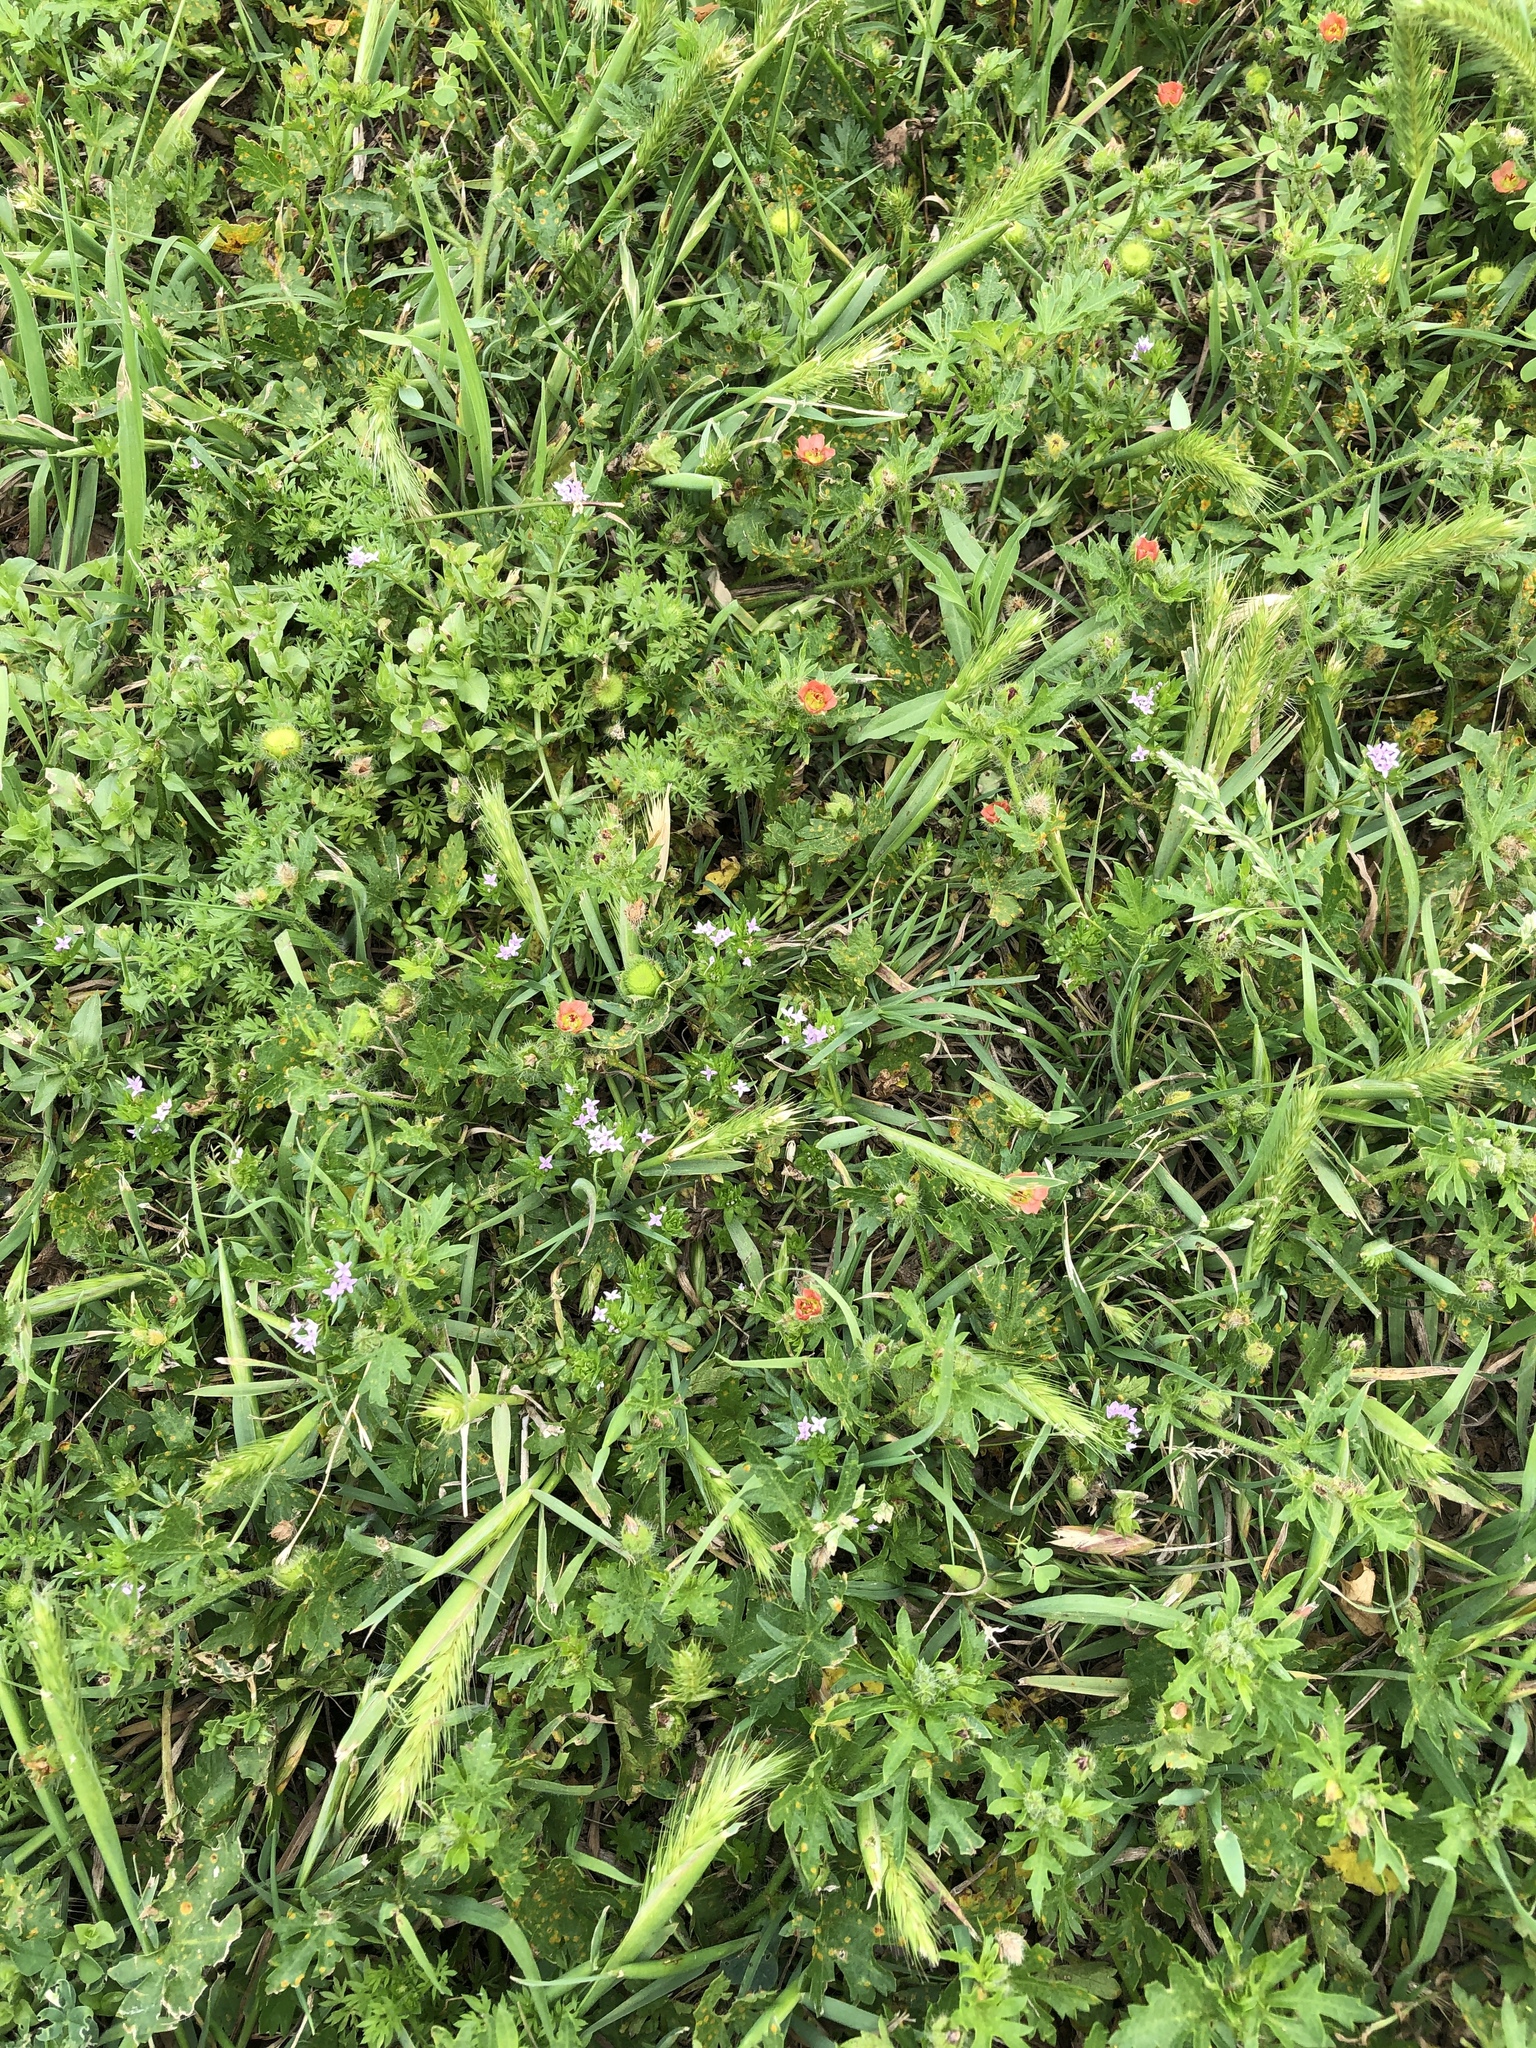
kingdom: Plantae
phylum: Tracheophyta
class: Magnoliopsida
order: Malvales
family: Malvaceae
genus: Modiola
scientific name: Modiola caroliniana
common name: Carolina bristlemallow
